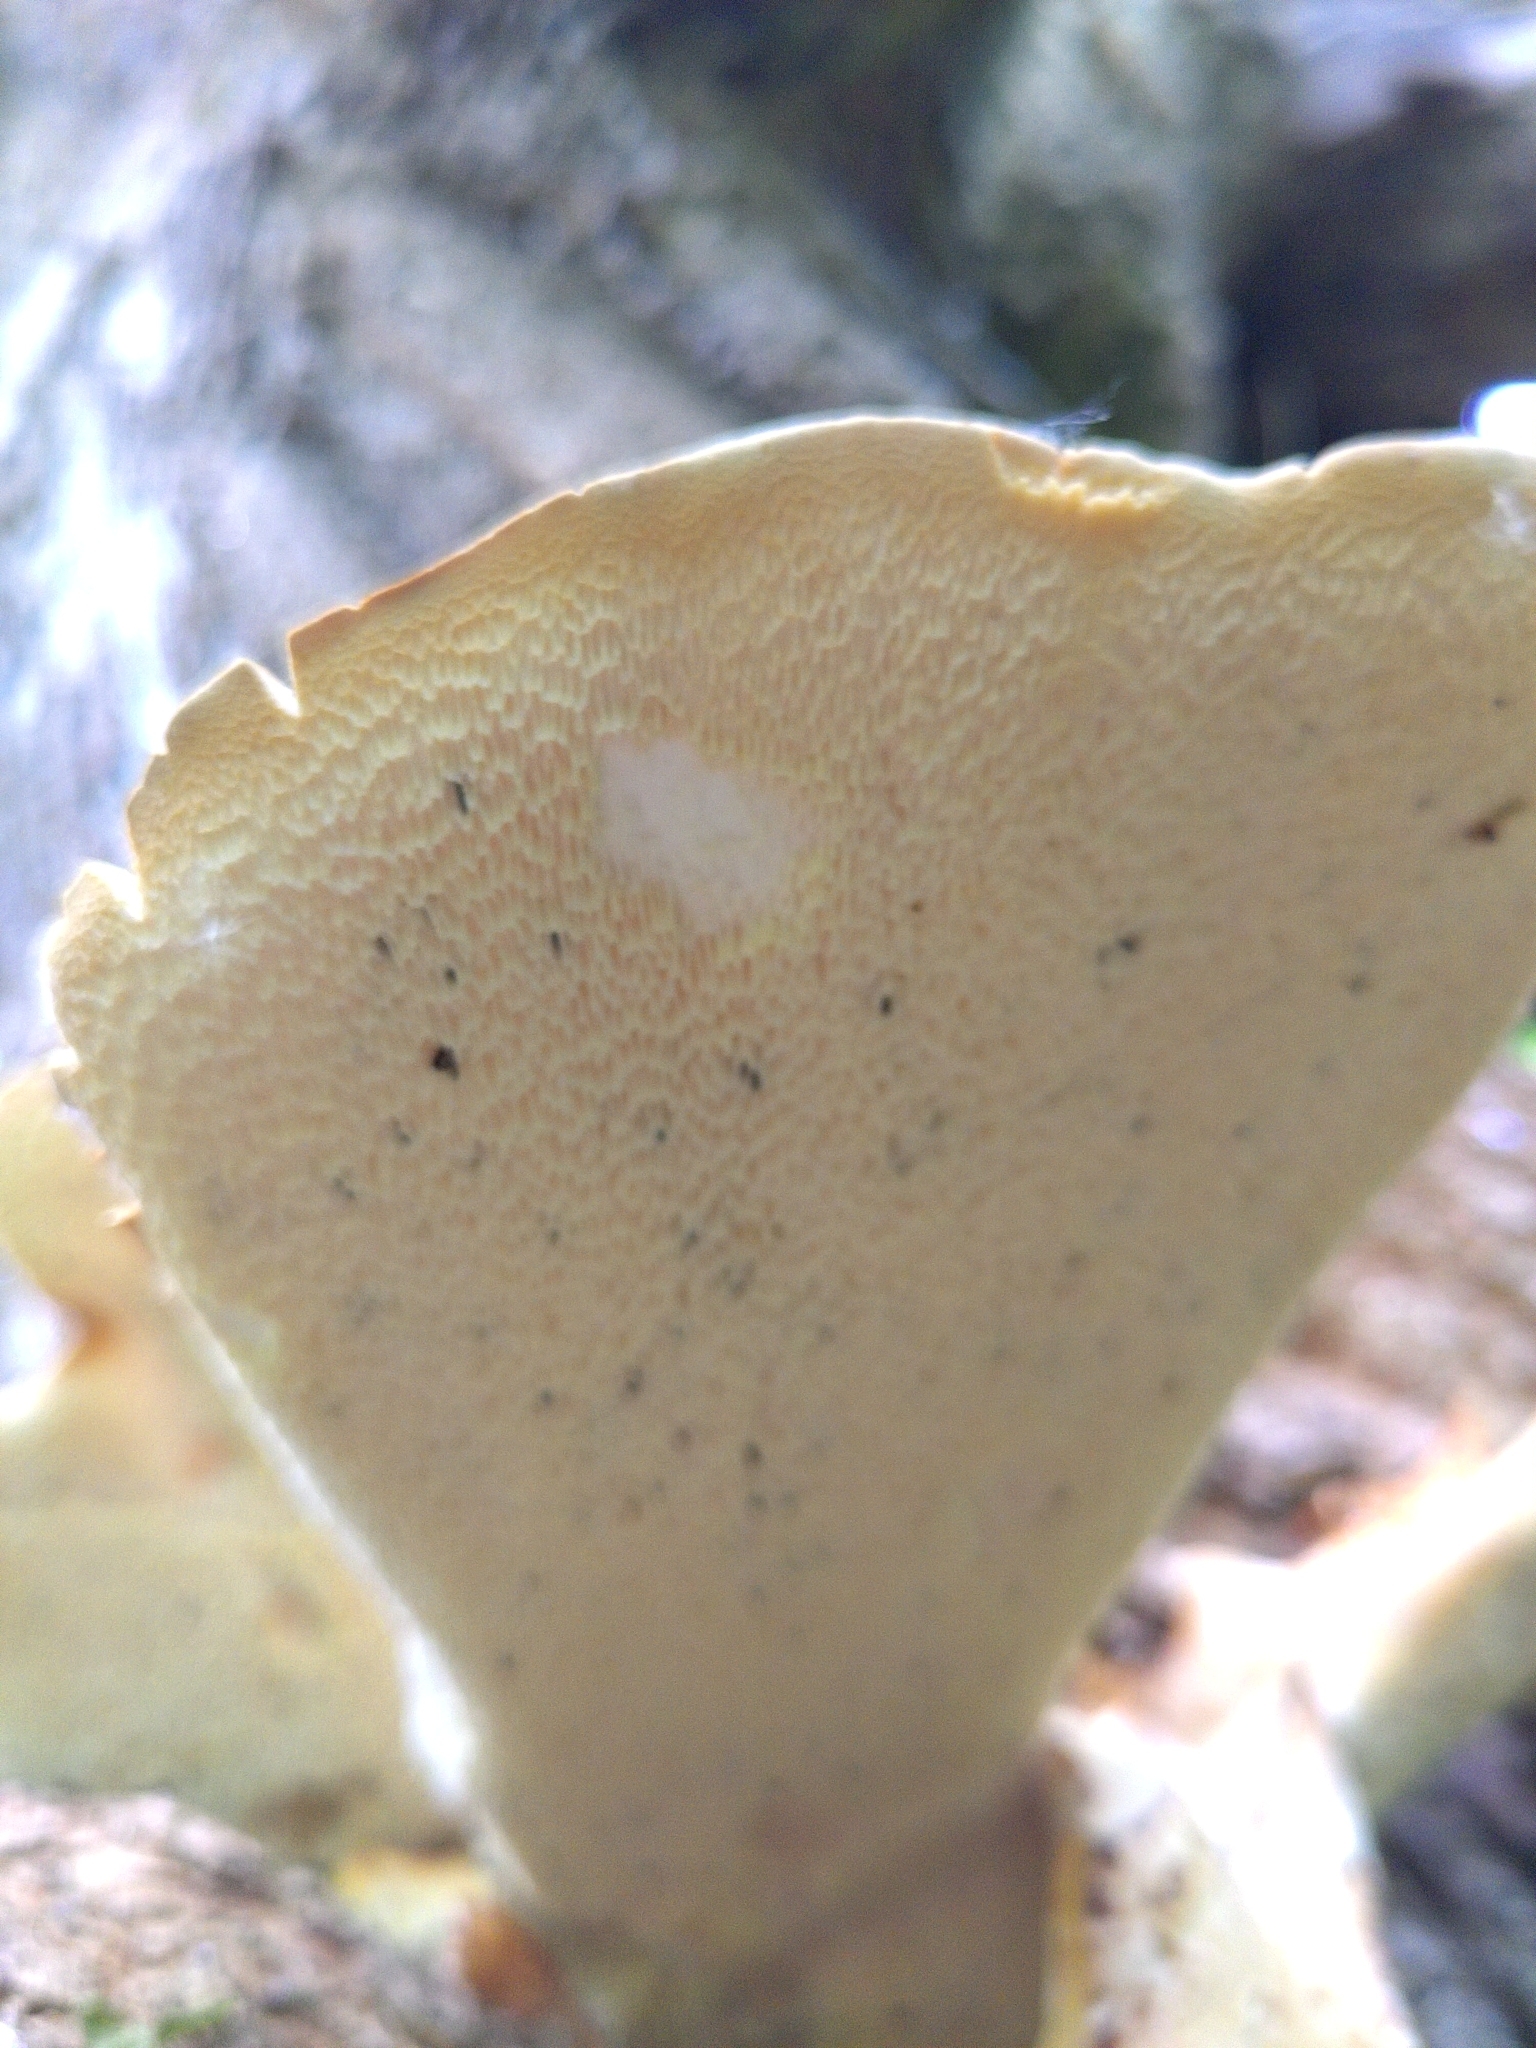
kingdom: Fungi
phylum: Basidiomycota
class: Agaricomycetes
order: Polyporales
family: Polyporaceae
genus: Cerioporus
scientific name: Cerioporus squamosus
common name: Dryad's saddle
